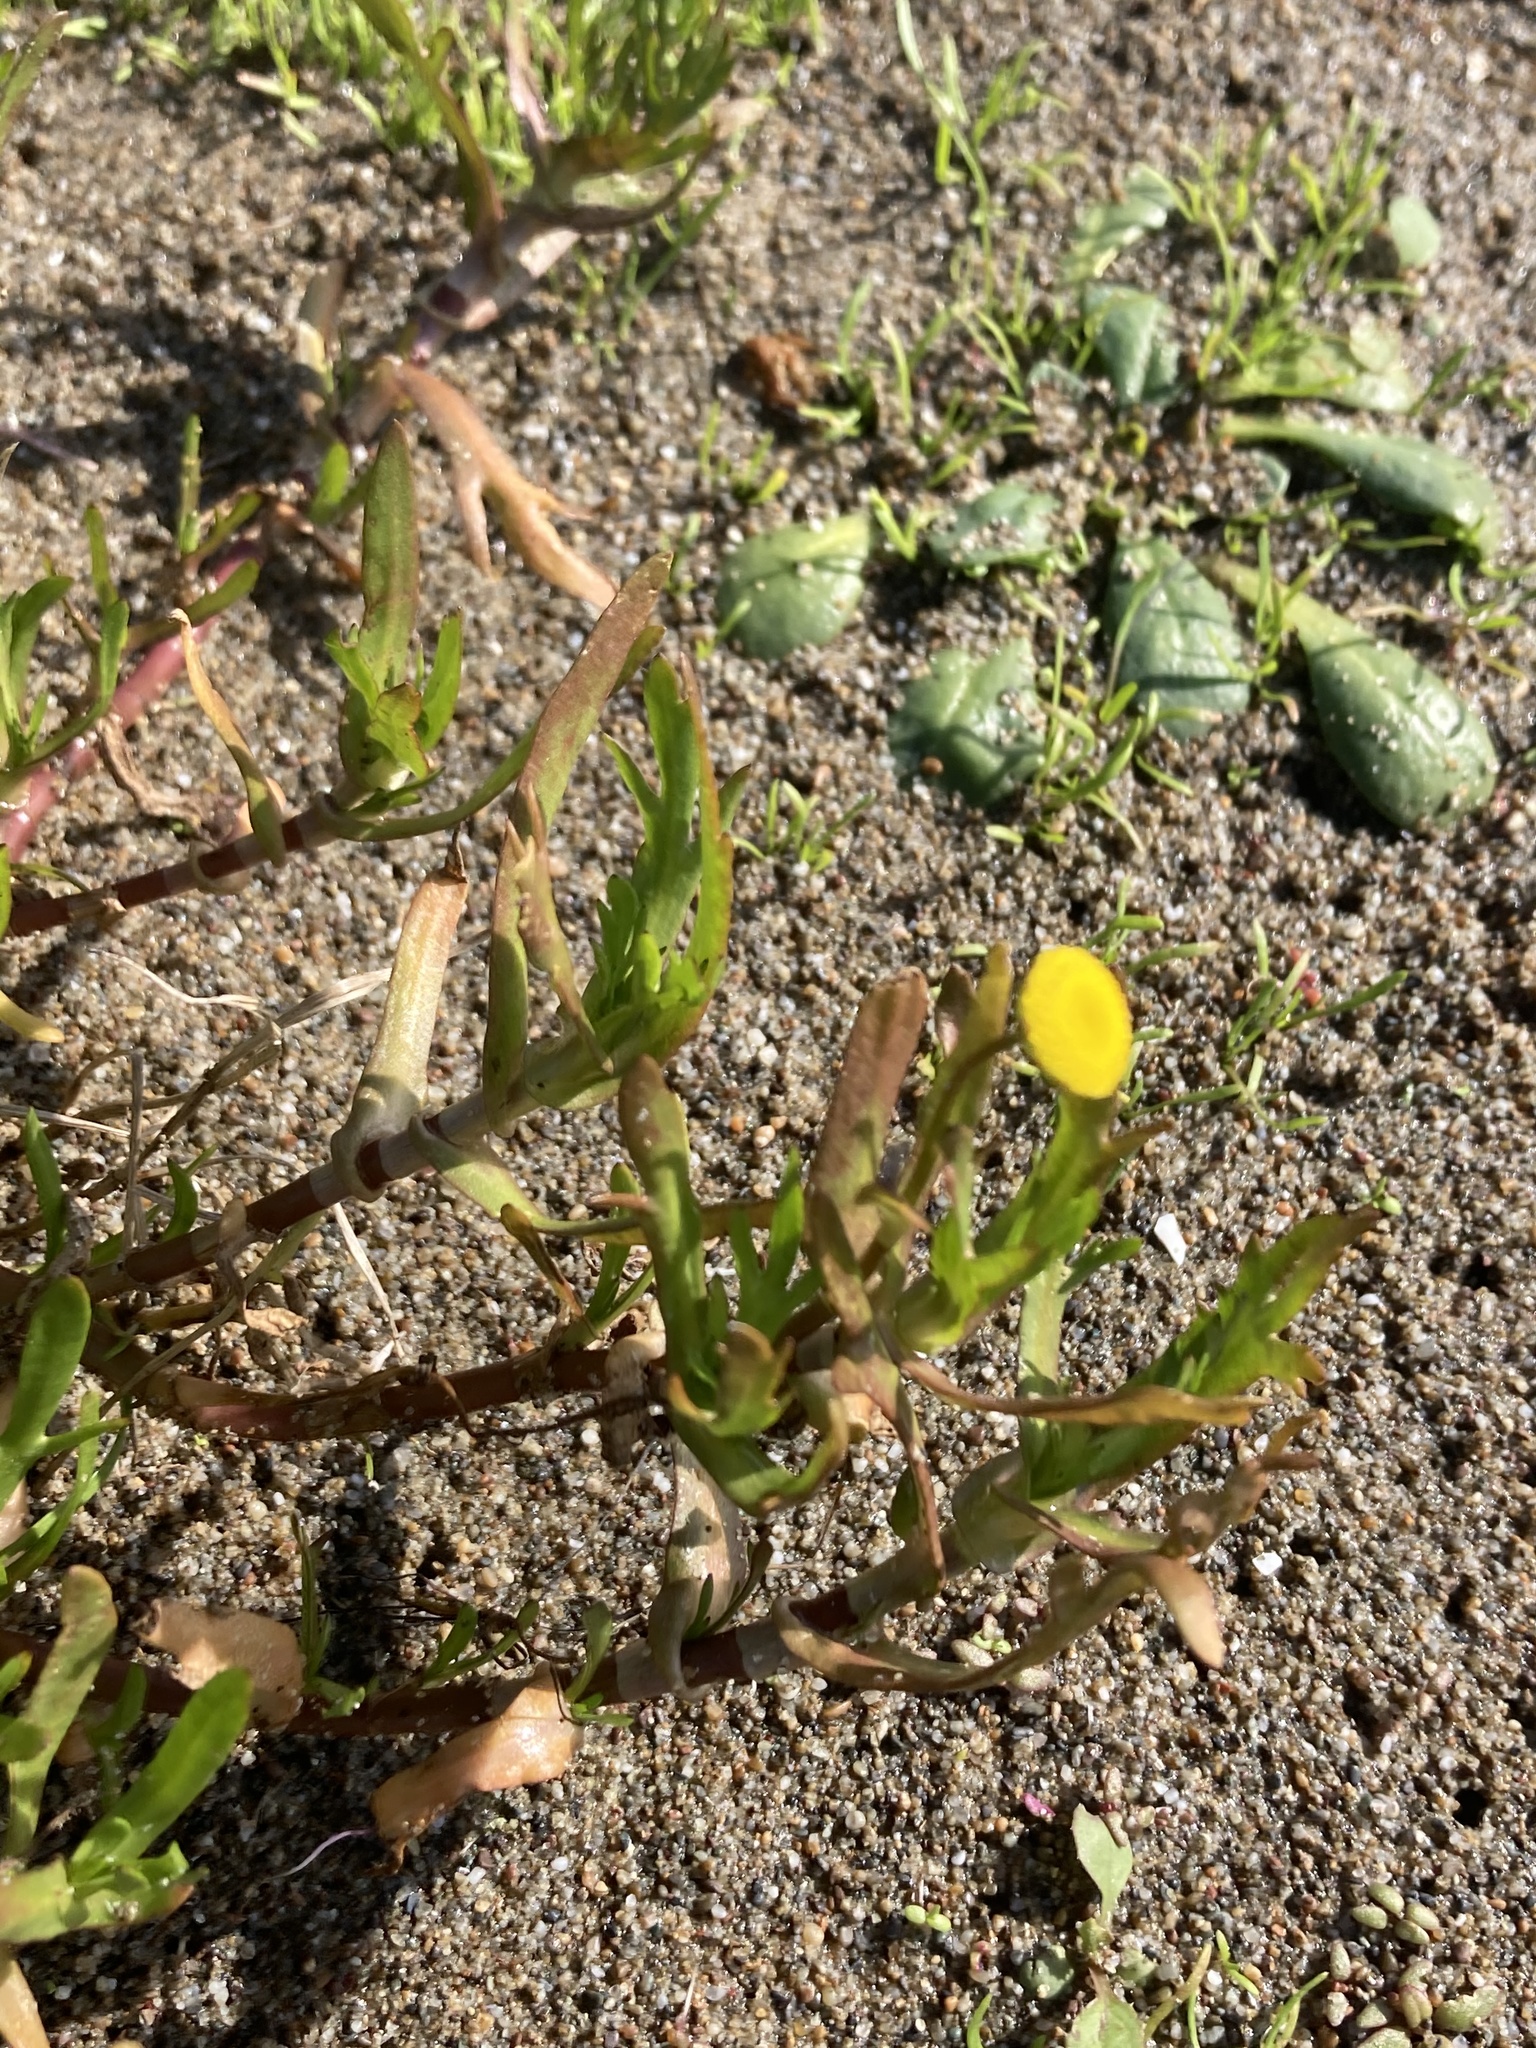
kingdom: Plantae
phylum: Tracheophyta
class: Magnoliopsida
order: Asterales
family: Asteraceae
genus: Cotula
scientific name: Cotula coronopifolia
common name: Buttonweed
